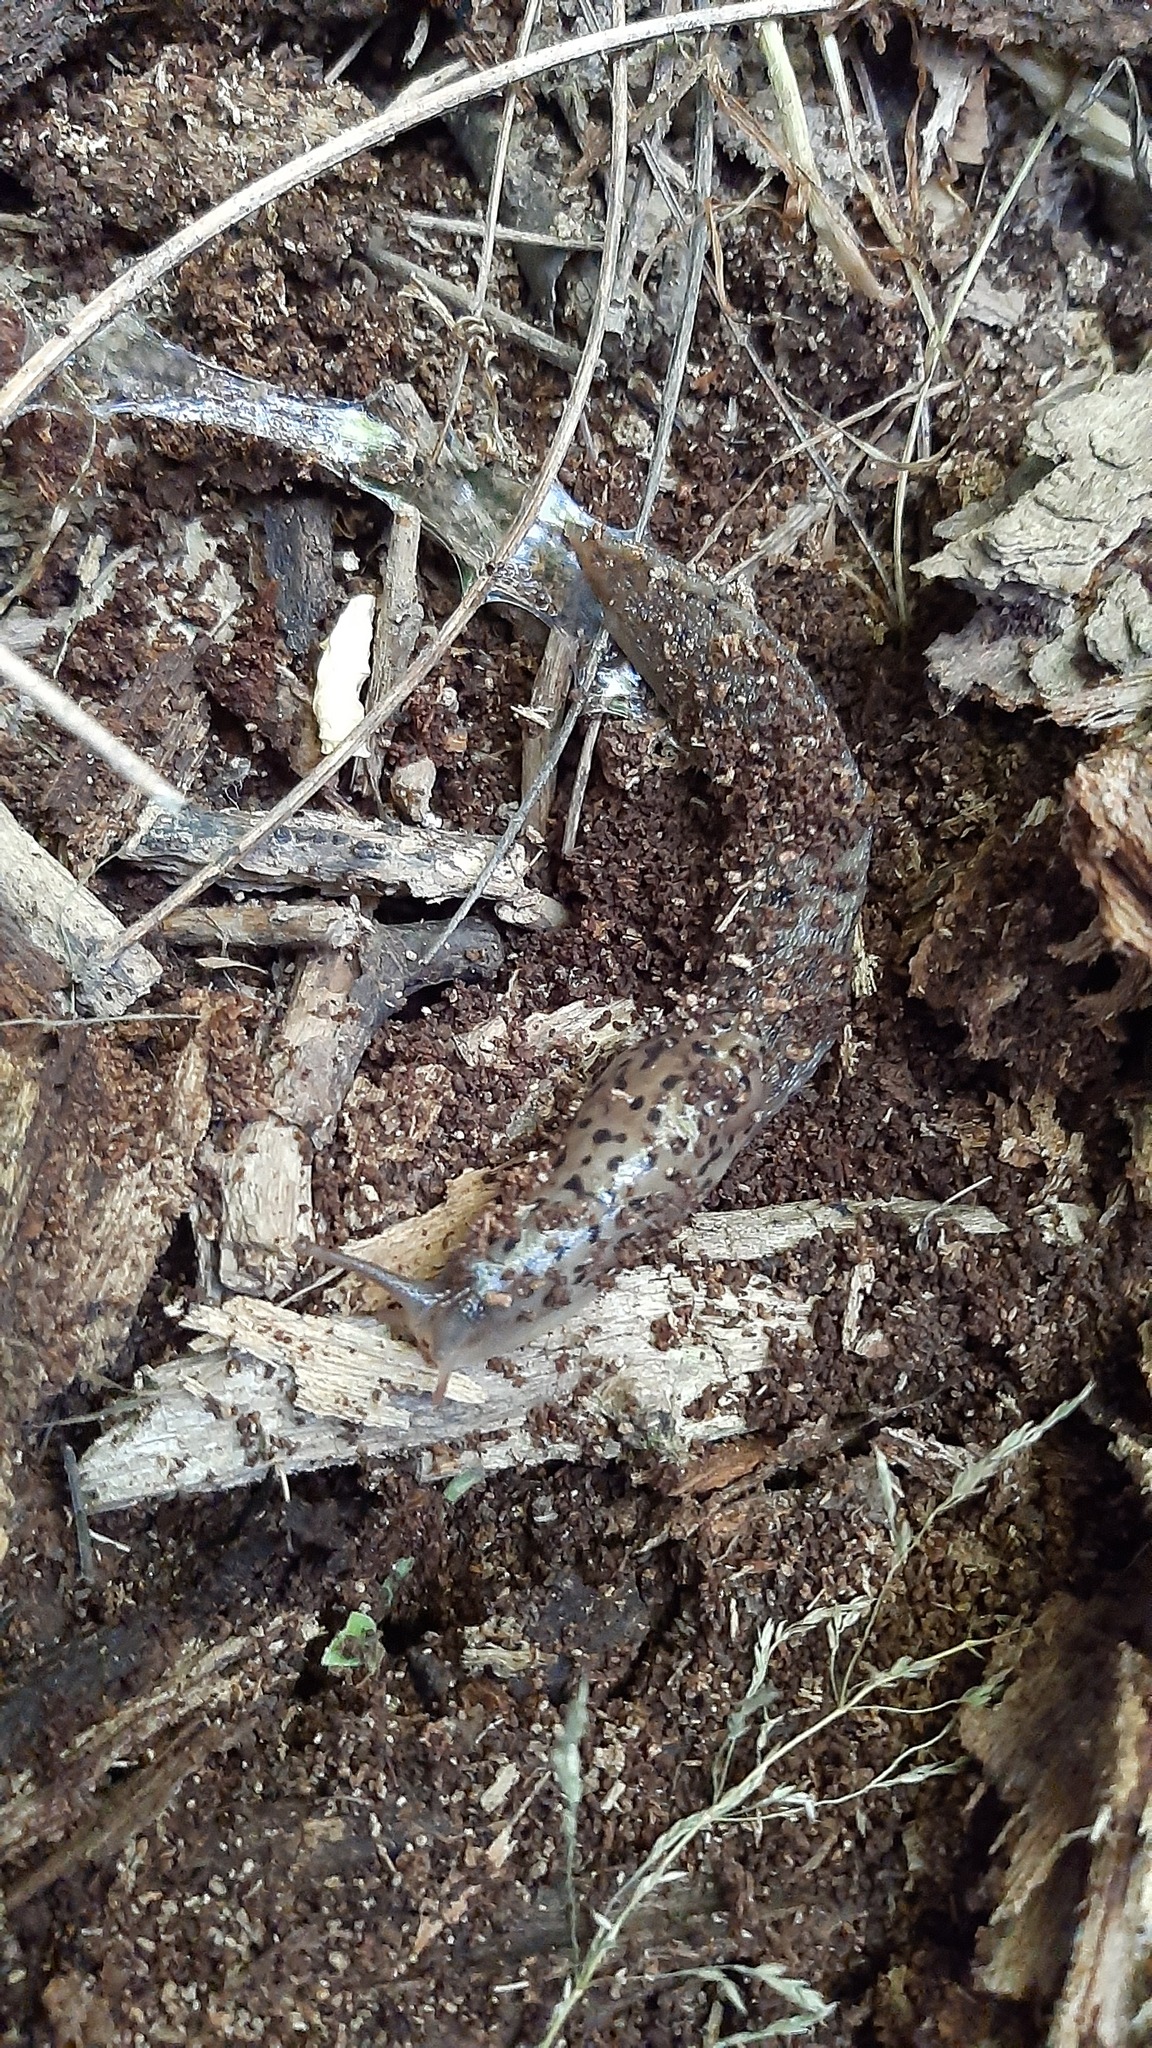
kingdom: Animalia
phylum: Mollusca
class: Gastropoda
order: Stylommatophora
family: Limacidae
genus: Limax
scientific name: Limax maximus
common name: Great grey slug
